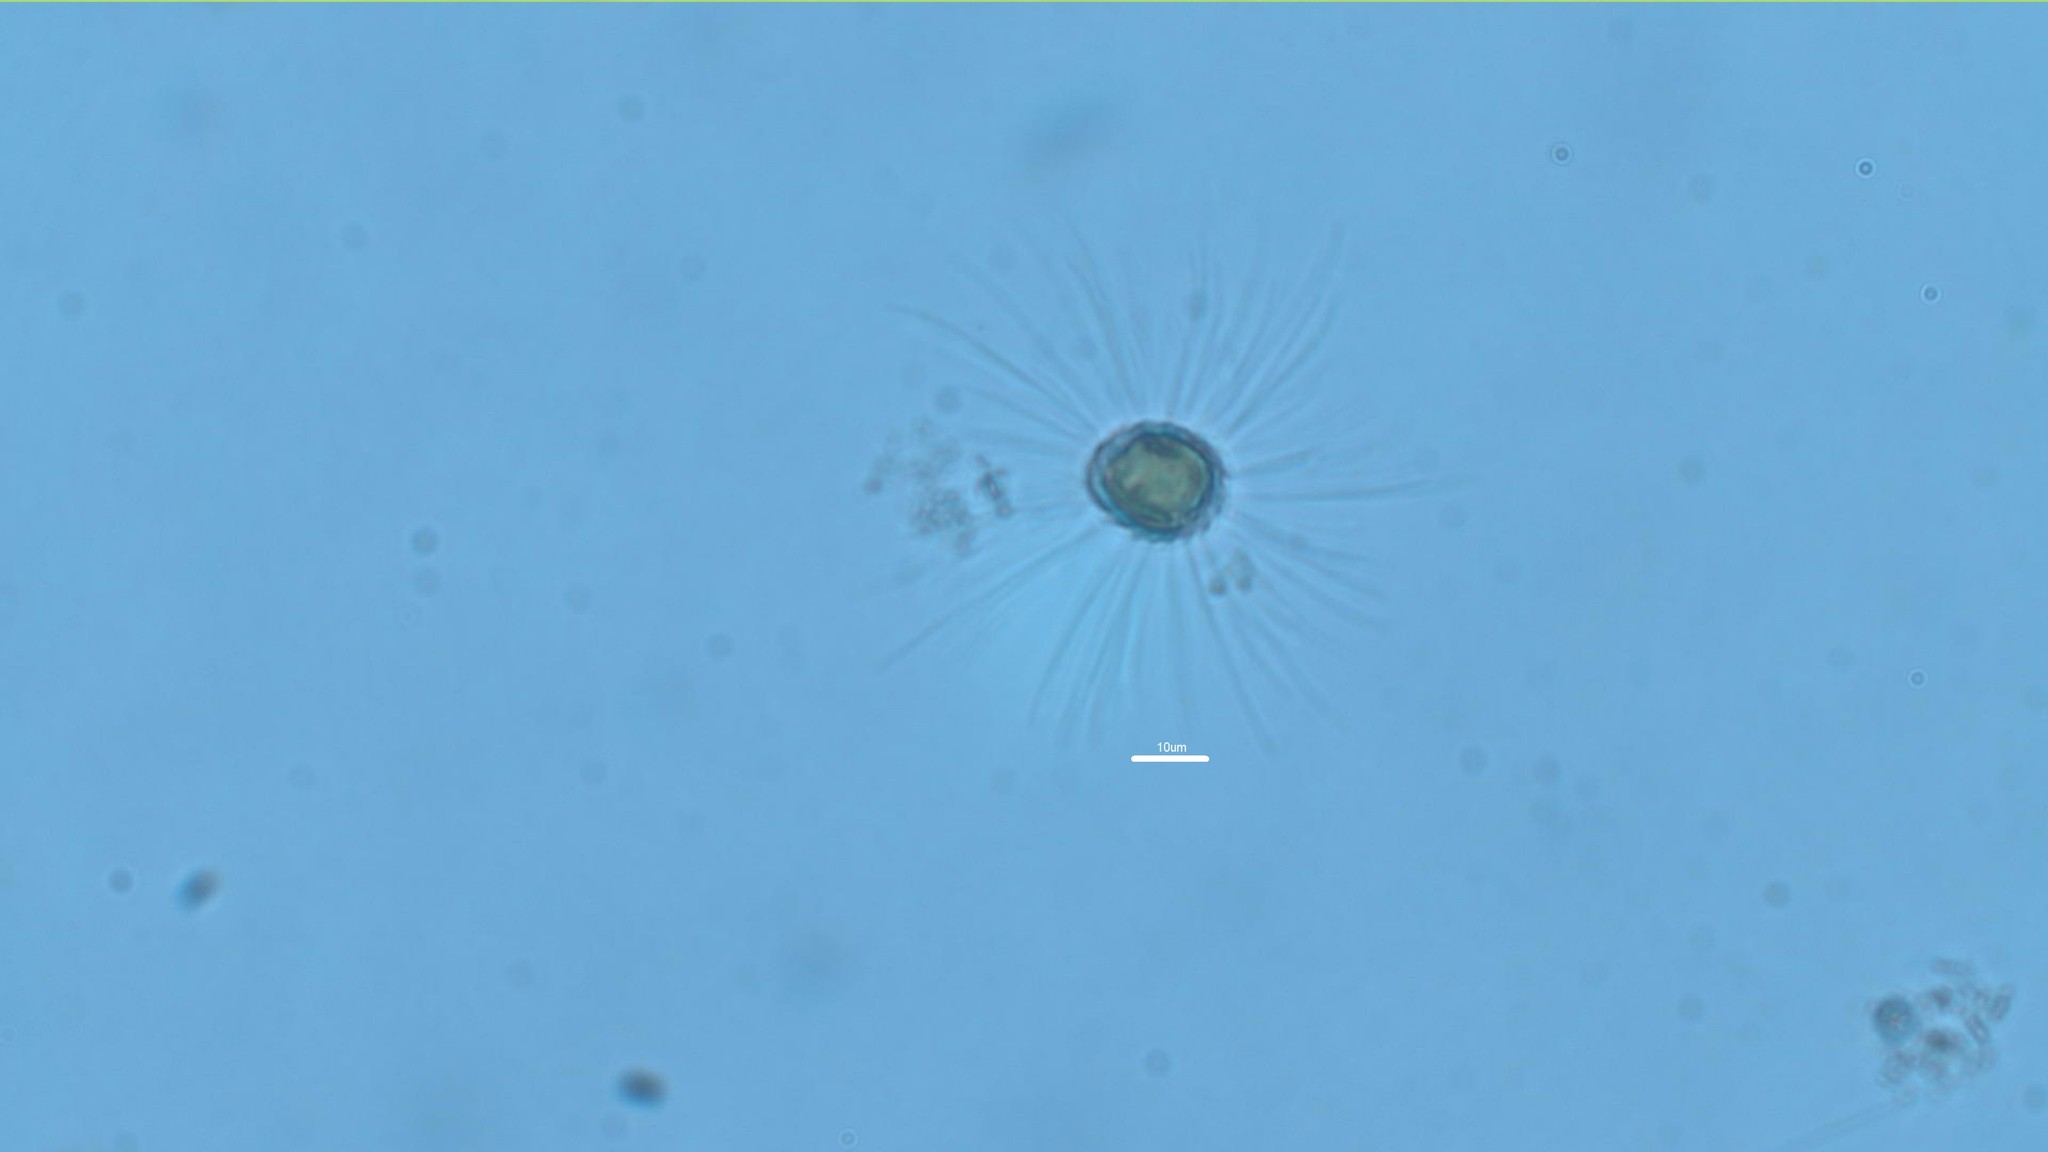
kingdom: Chromista
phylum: Ochrophyta
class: Chrysophyceae
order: Synurales
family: Mallomonadaceae
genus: Mallomonas
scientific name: Mallomonas
